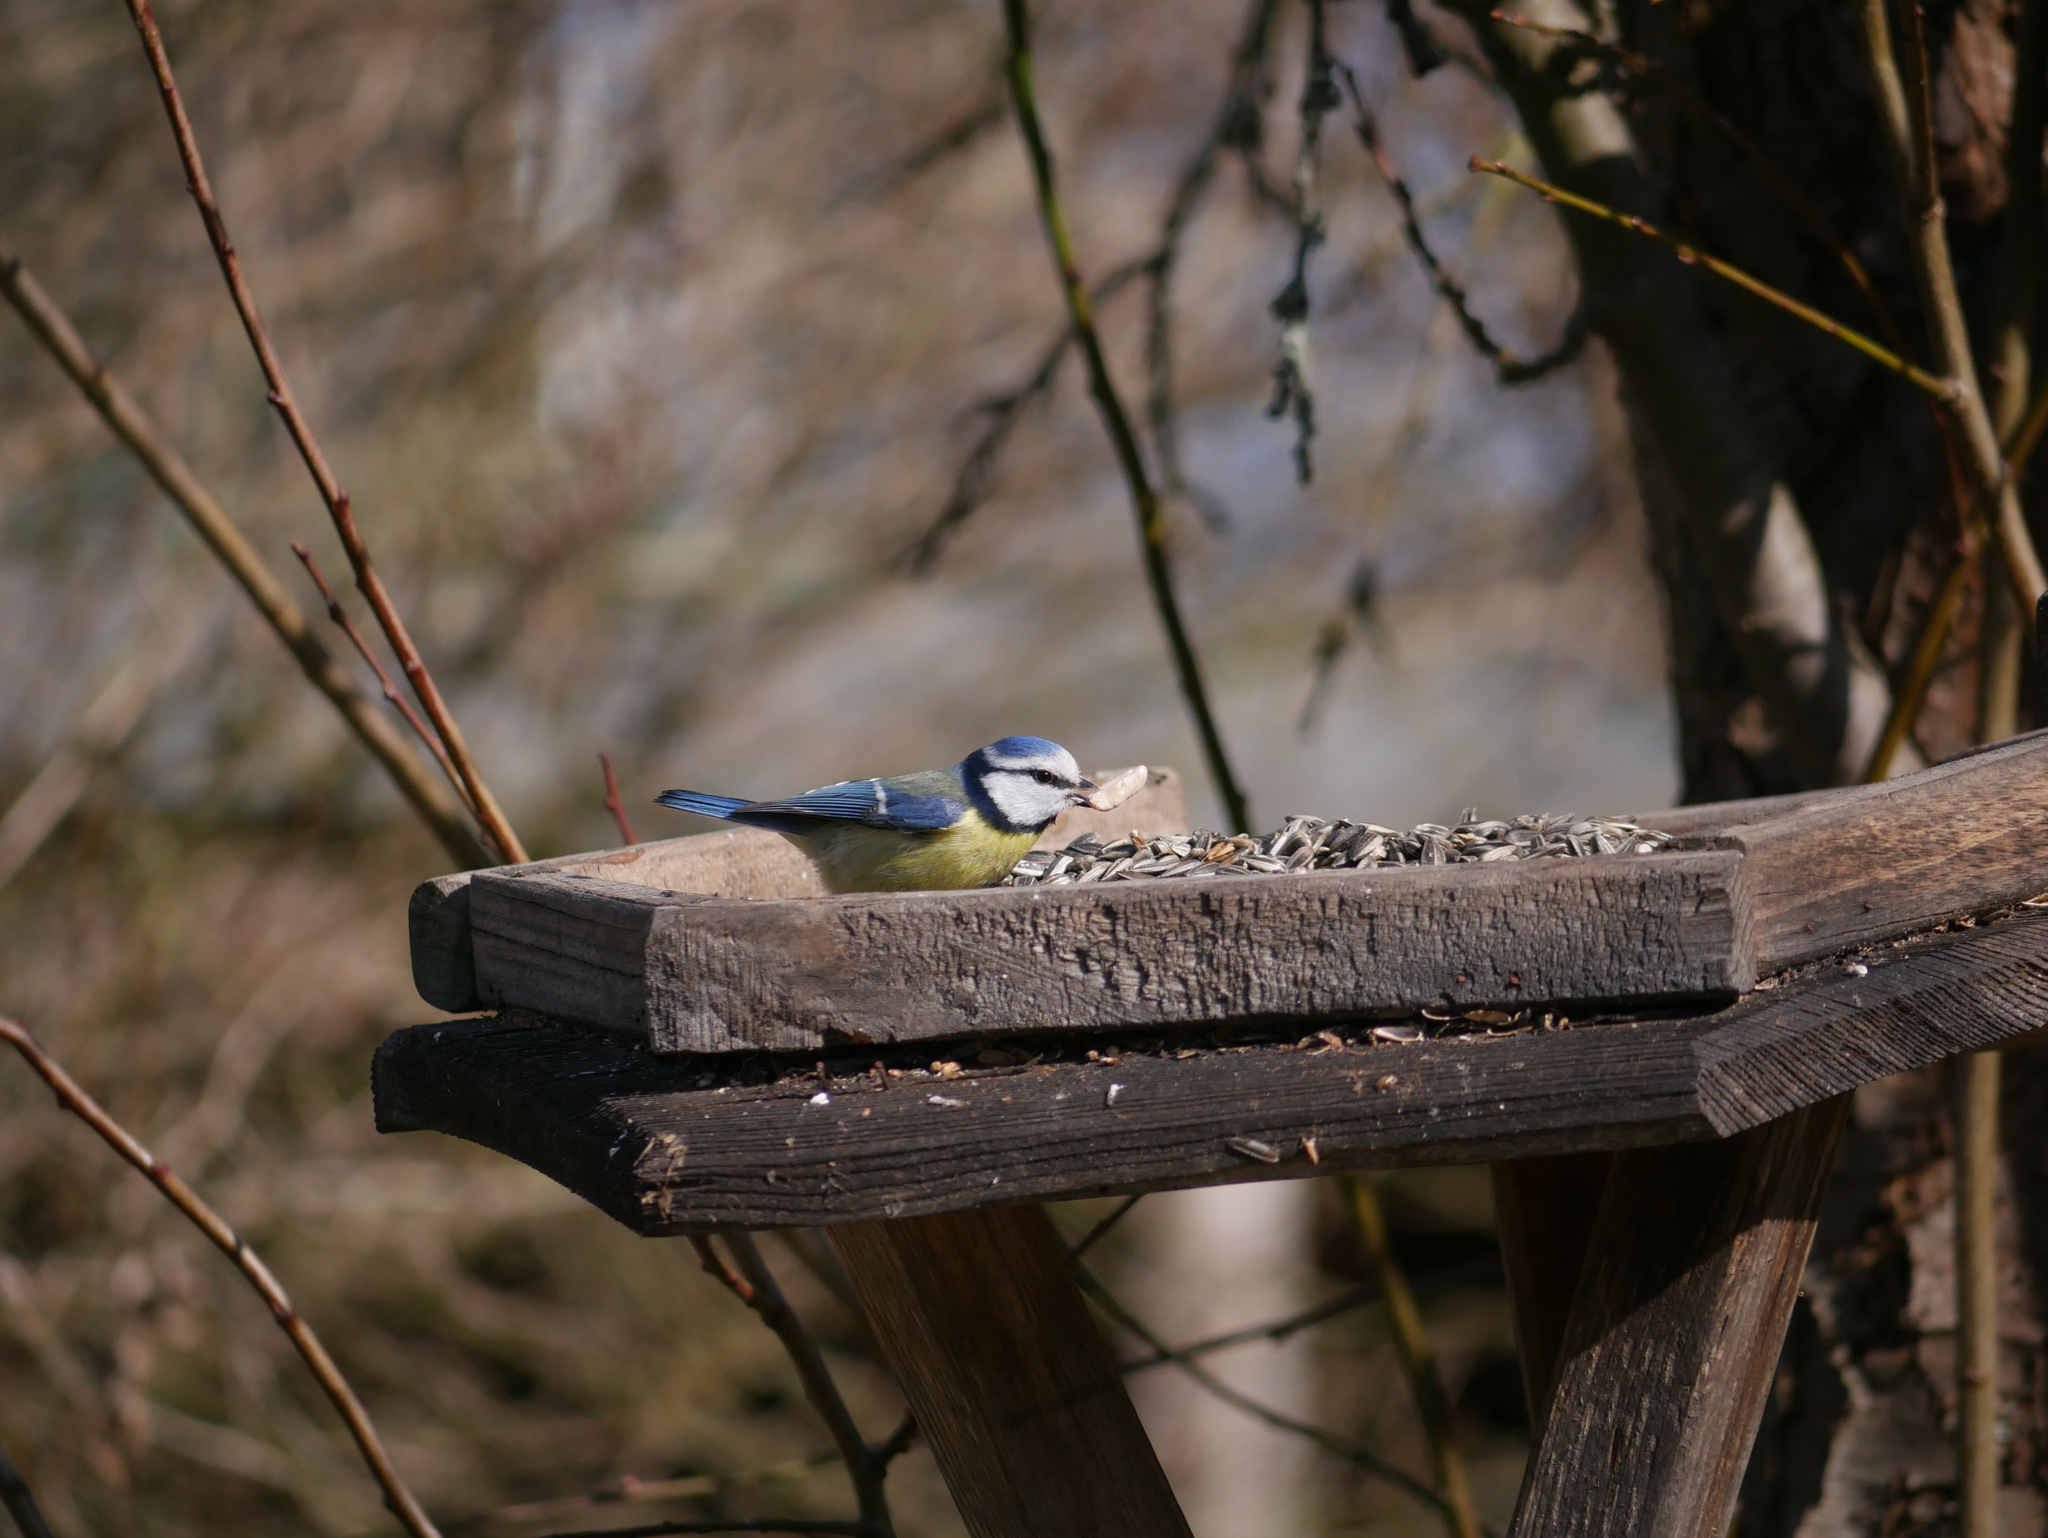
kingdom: Animalia
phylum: Chordata
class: Aves
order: Passeriformes
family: Paridae
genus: Cyanistes
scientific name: Cyanistes caeruleus
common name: Eurasian blue tit
